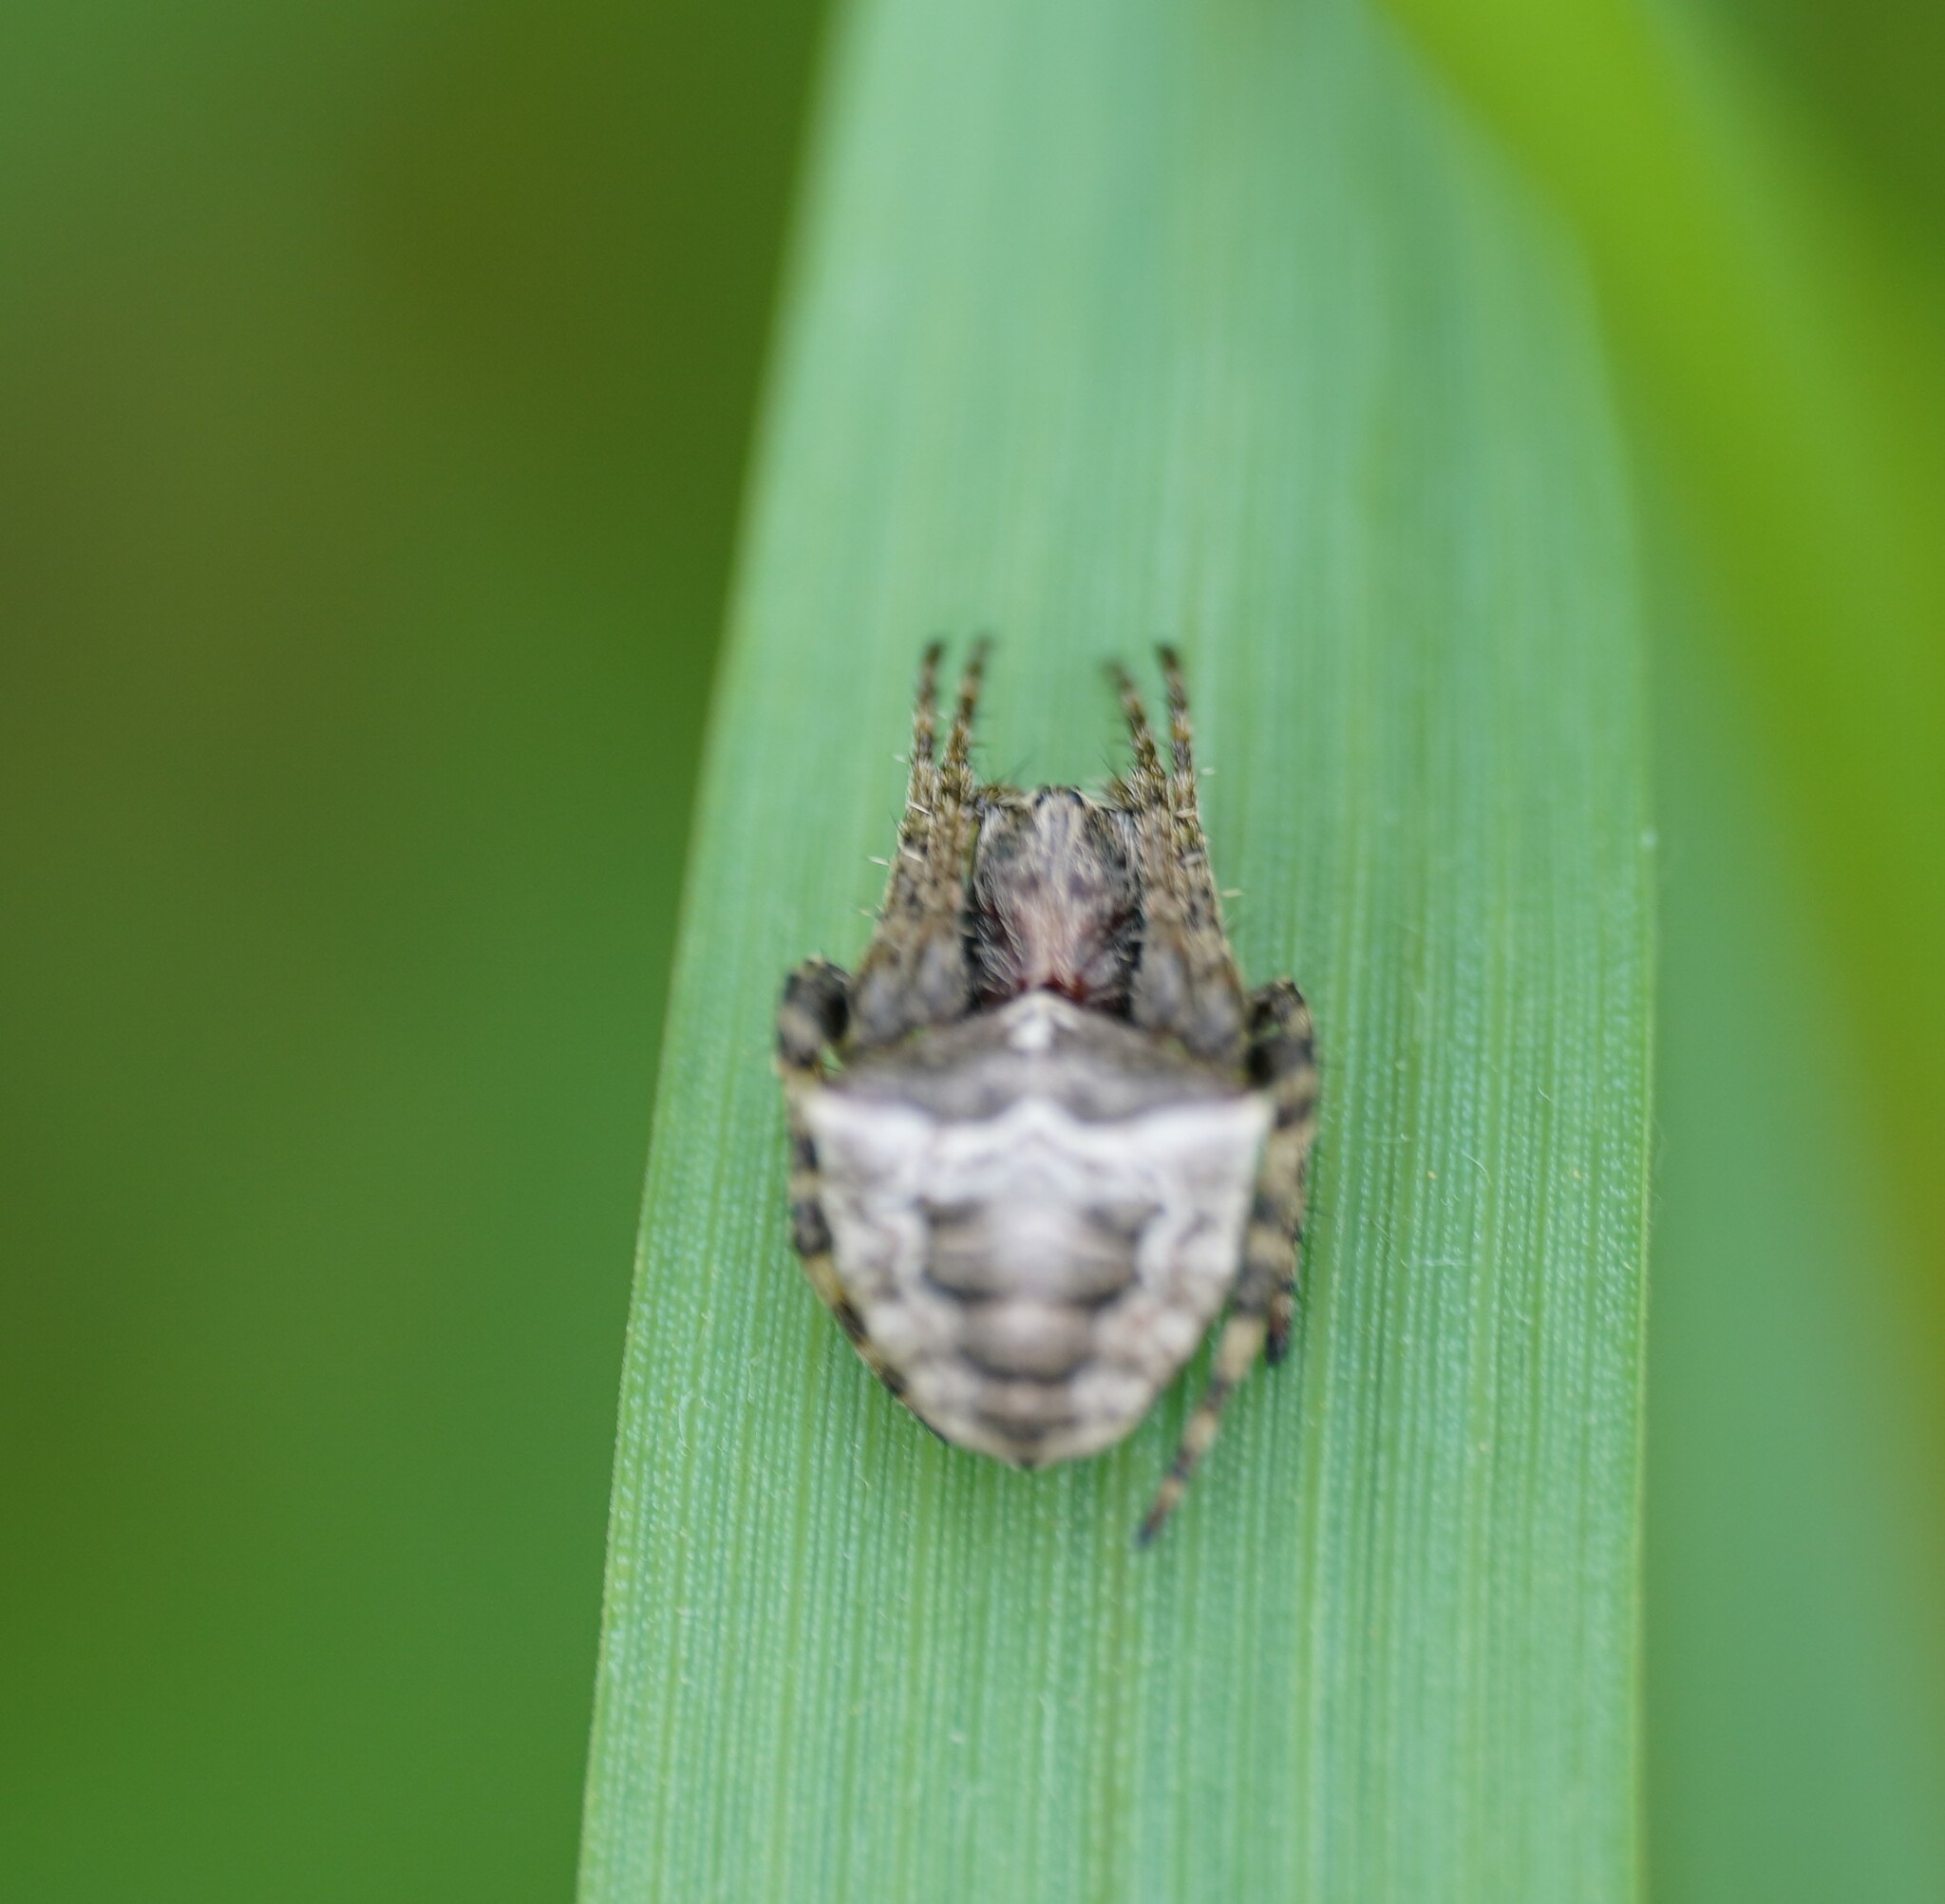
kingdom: Animalia
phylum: Arthropoda
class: Arachnida
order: Araneae
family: Araneidae
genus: Gibbaranea
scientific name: Gibbaranea bituberculata
